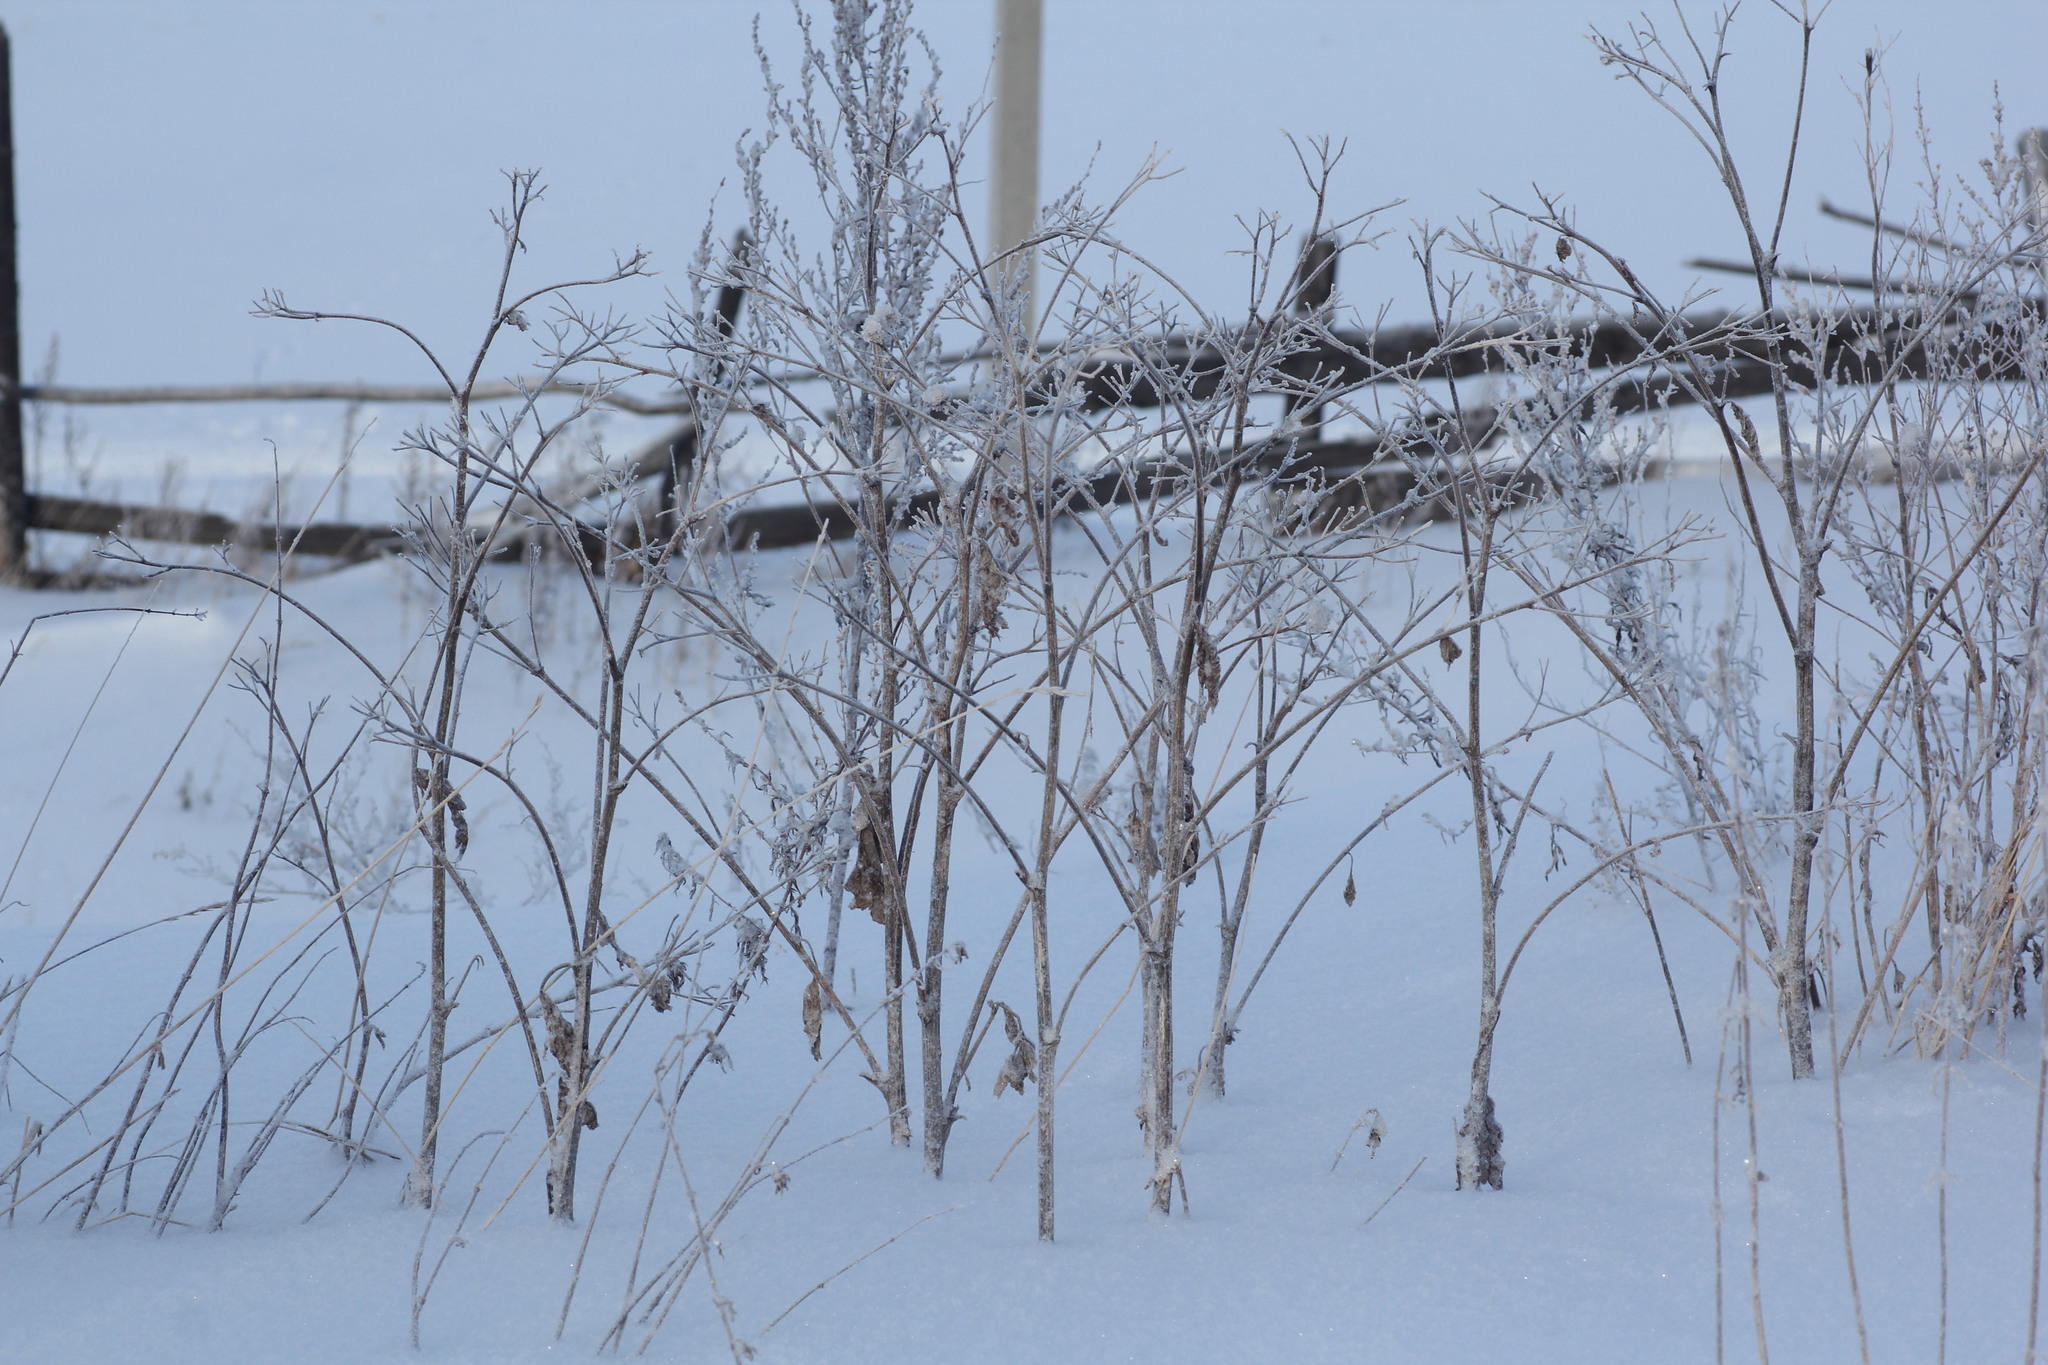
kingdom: Plantae
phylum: Tracheophyta
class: Magnoliopsida
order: Asterales
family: Asteraceae
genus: Arctium
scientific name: Arctium tomentosum
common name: Woolly burdock
